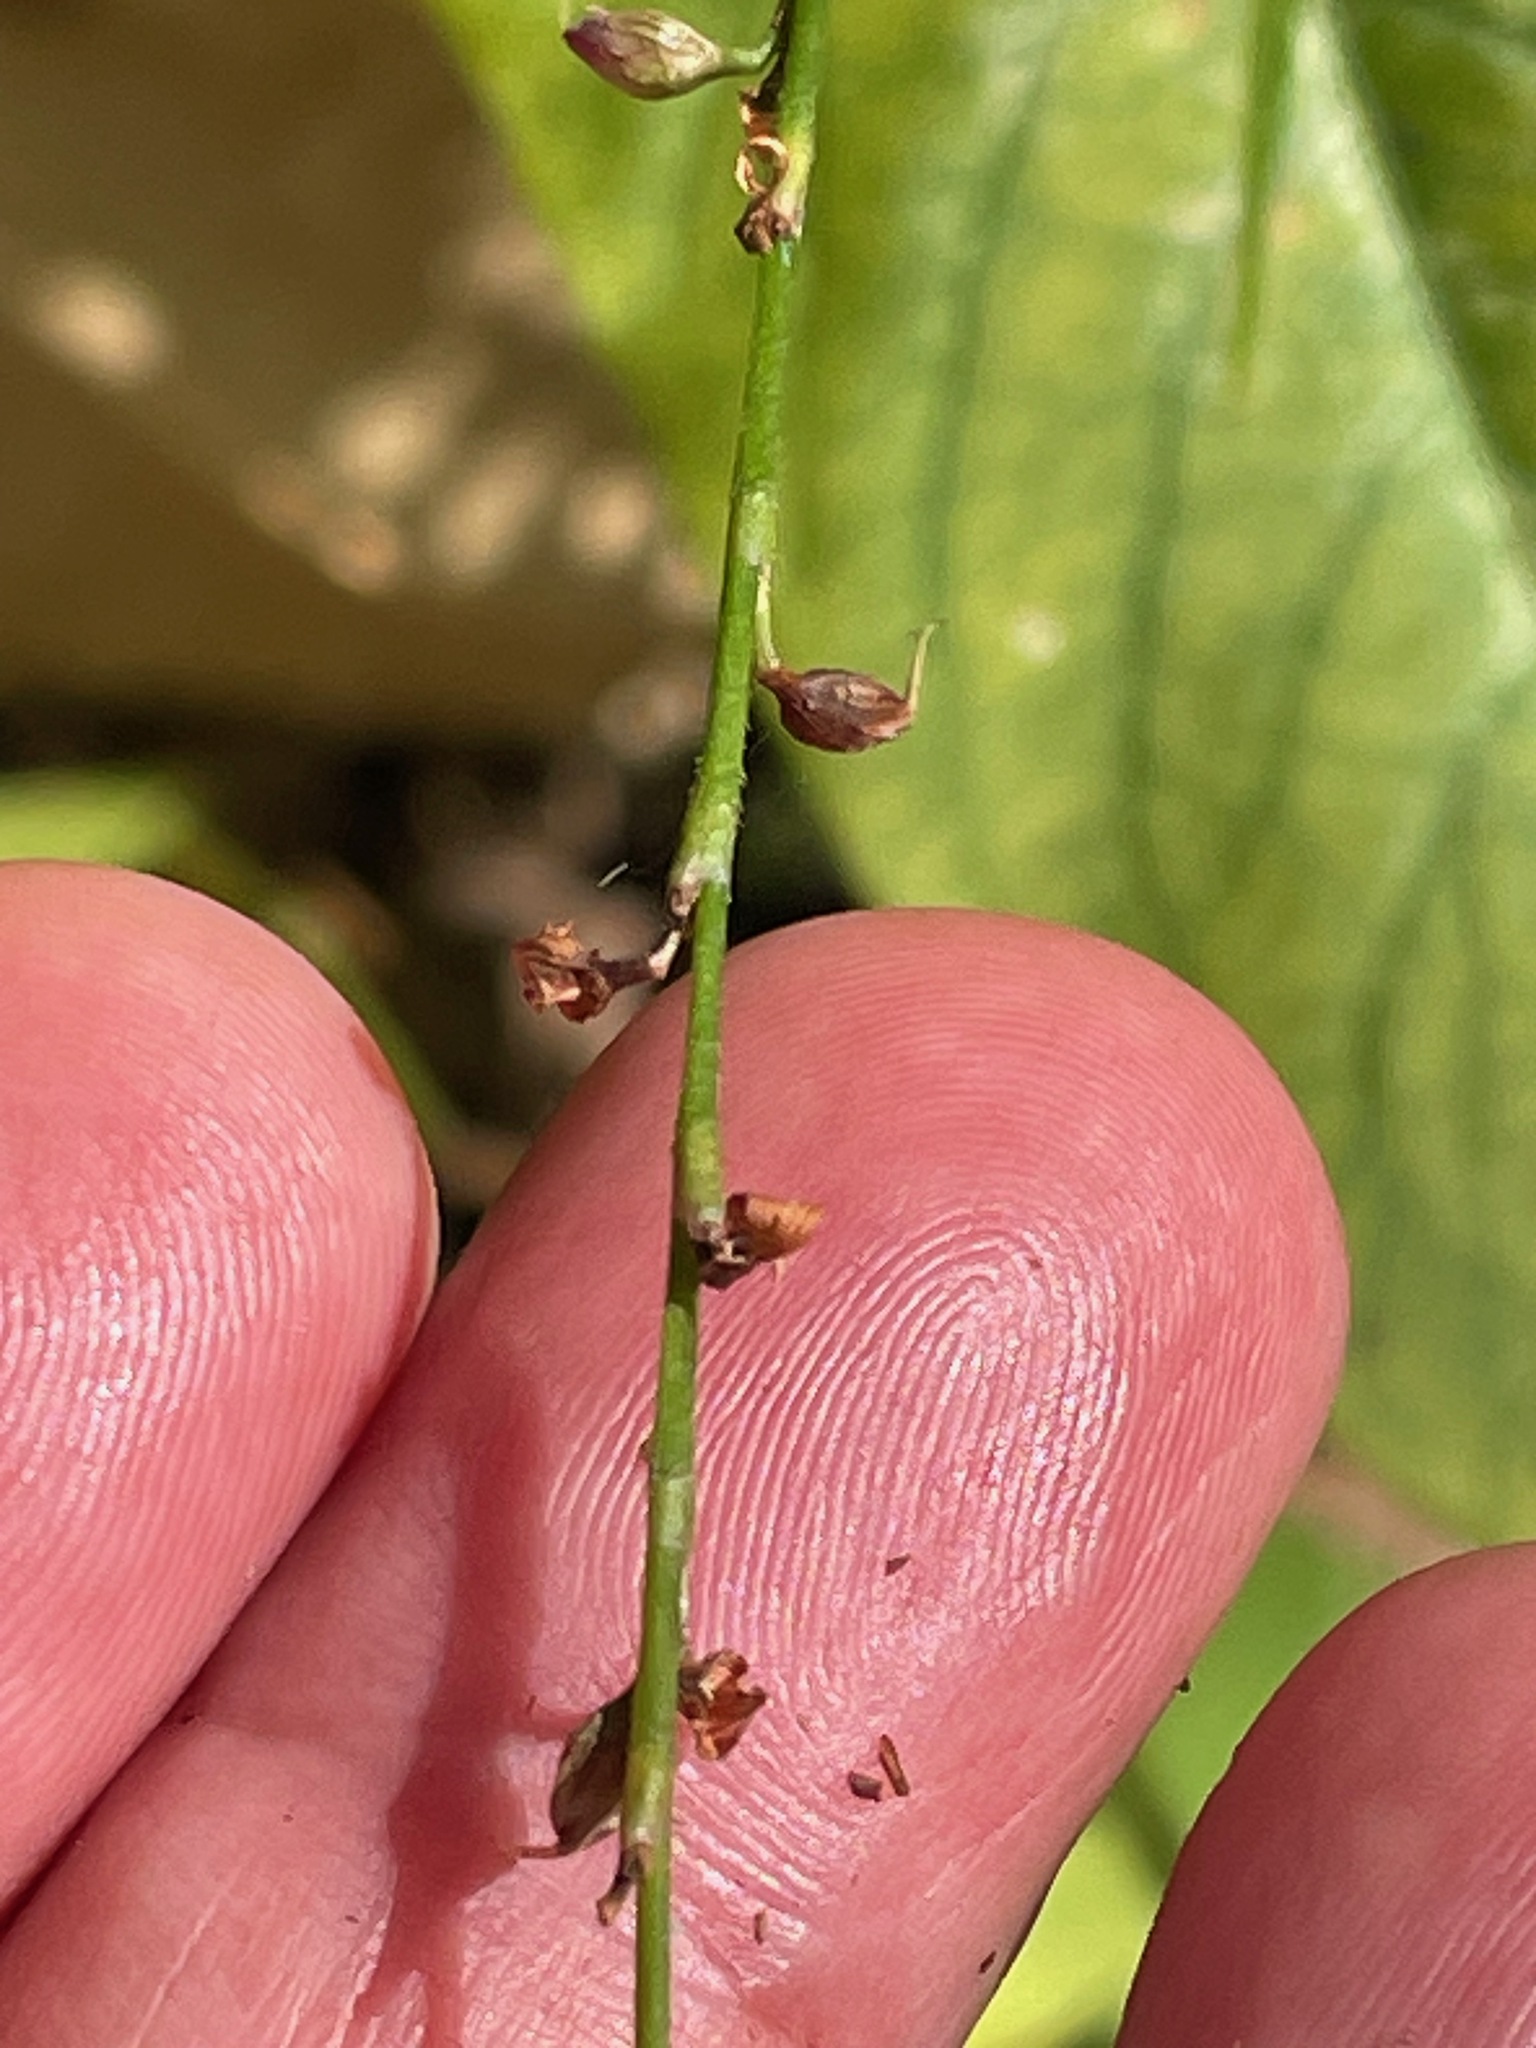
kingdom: Plantae
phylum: Tracheophyta
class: Magnoliopsida
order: Caryophyllales
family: Polygonaceae
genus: Persicaria
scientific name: Persicaria virginiana
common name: Jumpseed
